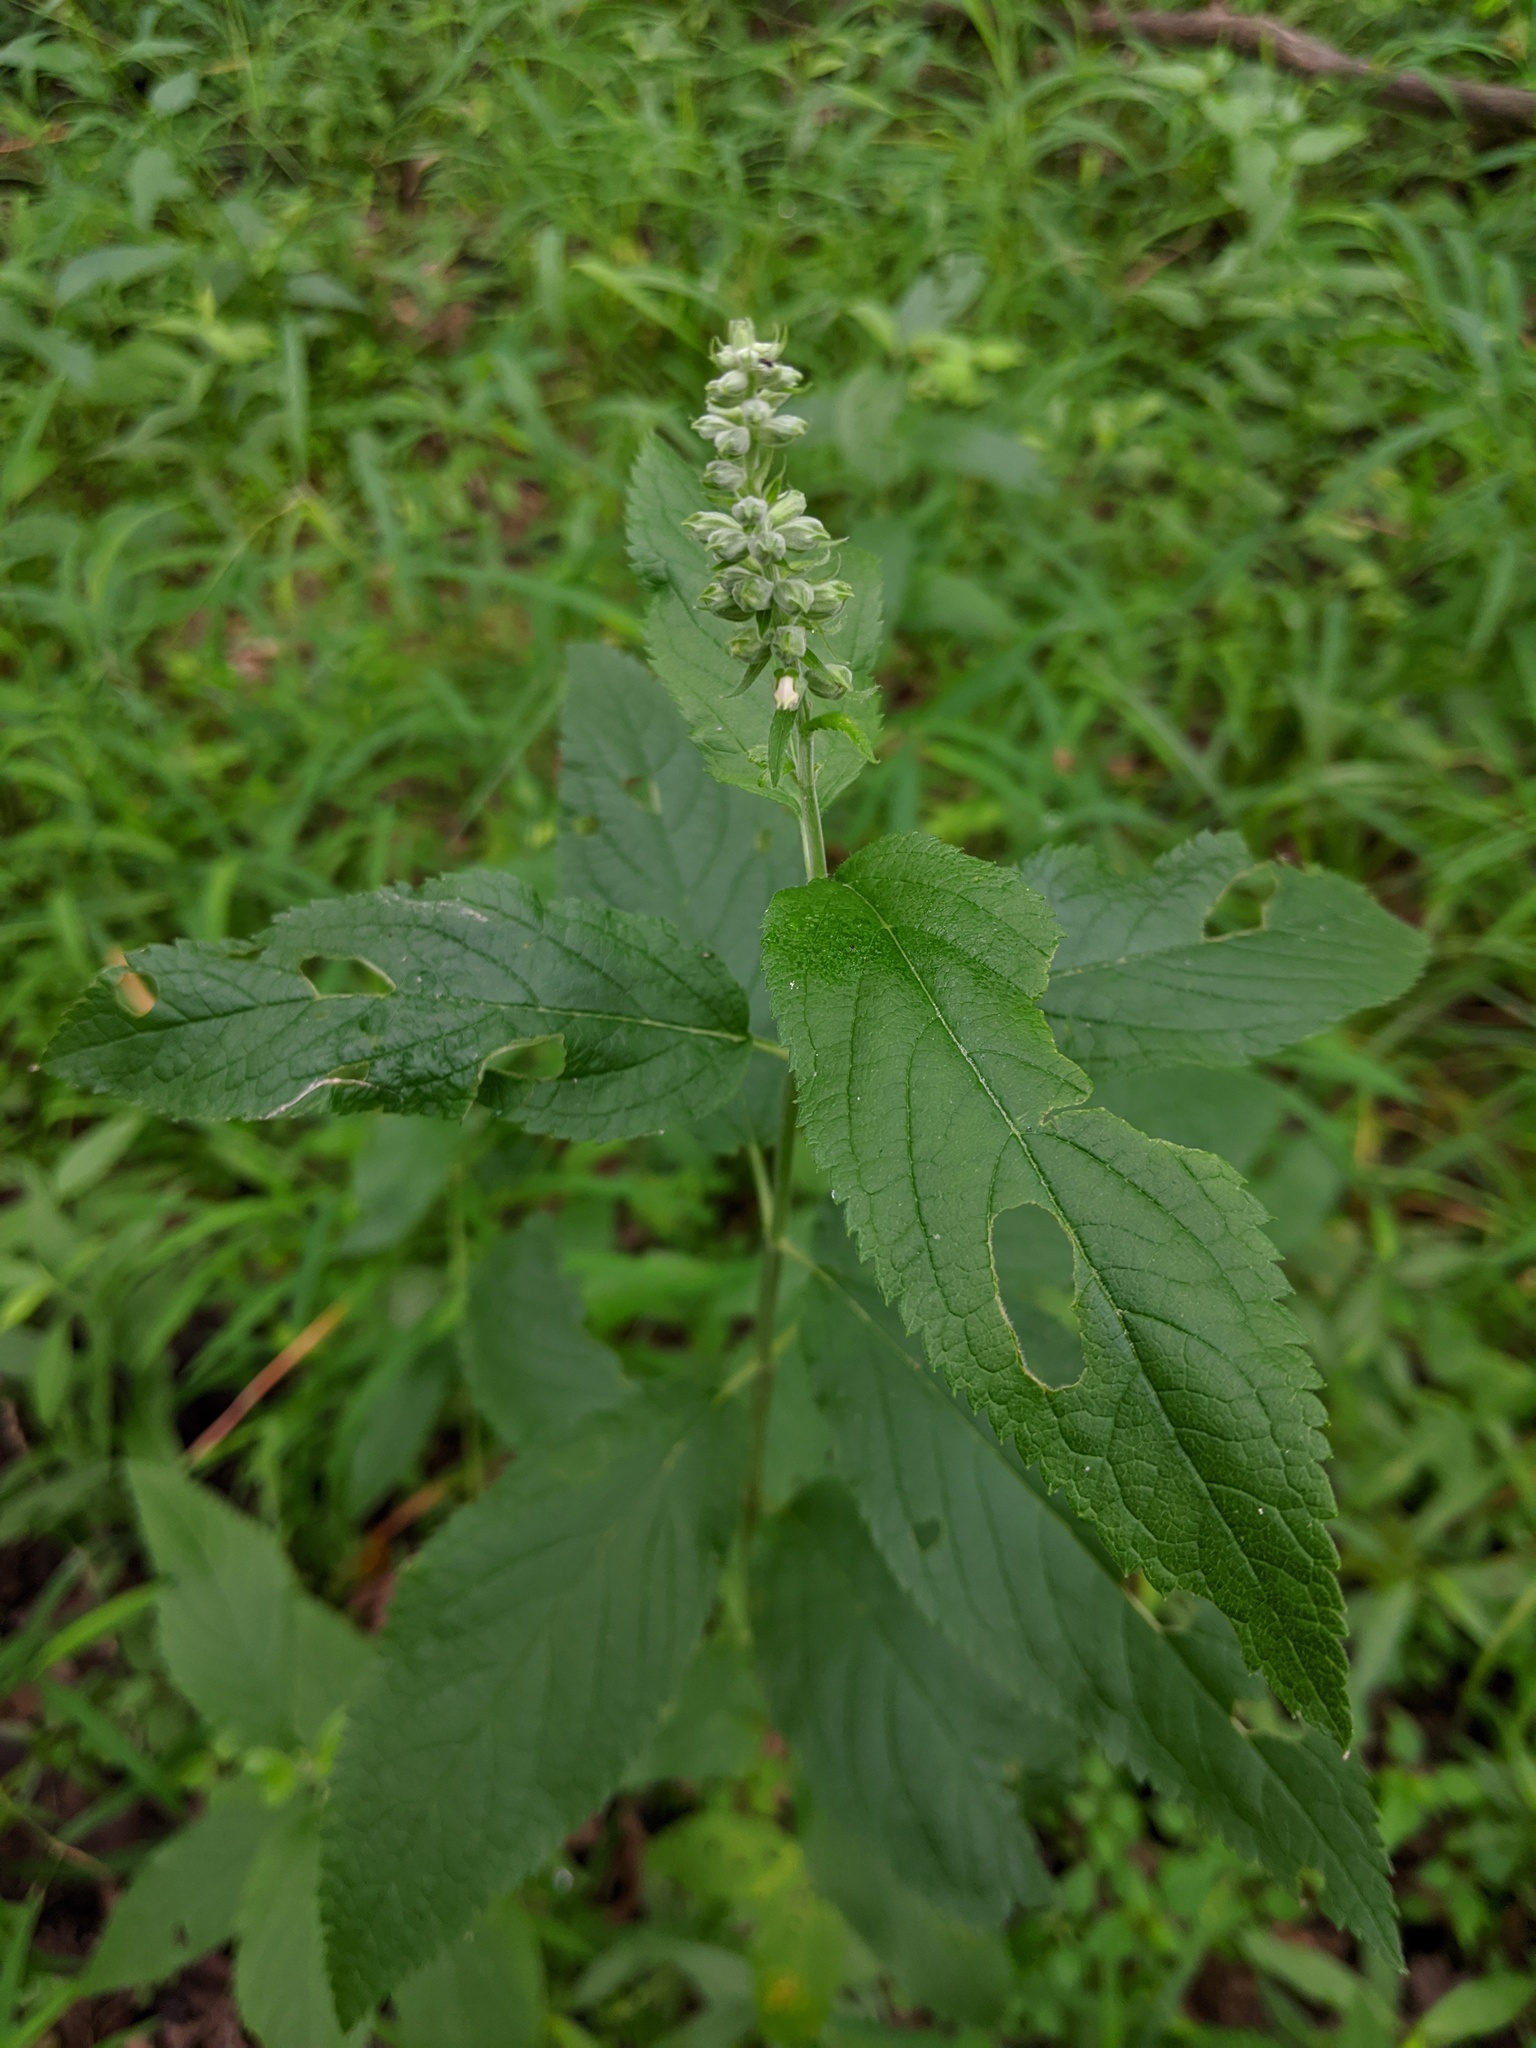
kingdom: Plantae
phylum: Tracheophyta
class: Magnoliopsida
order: Lamiales
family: Lamiaceae
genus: Teucrium
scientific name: Teucrium canadense
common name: American germander
